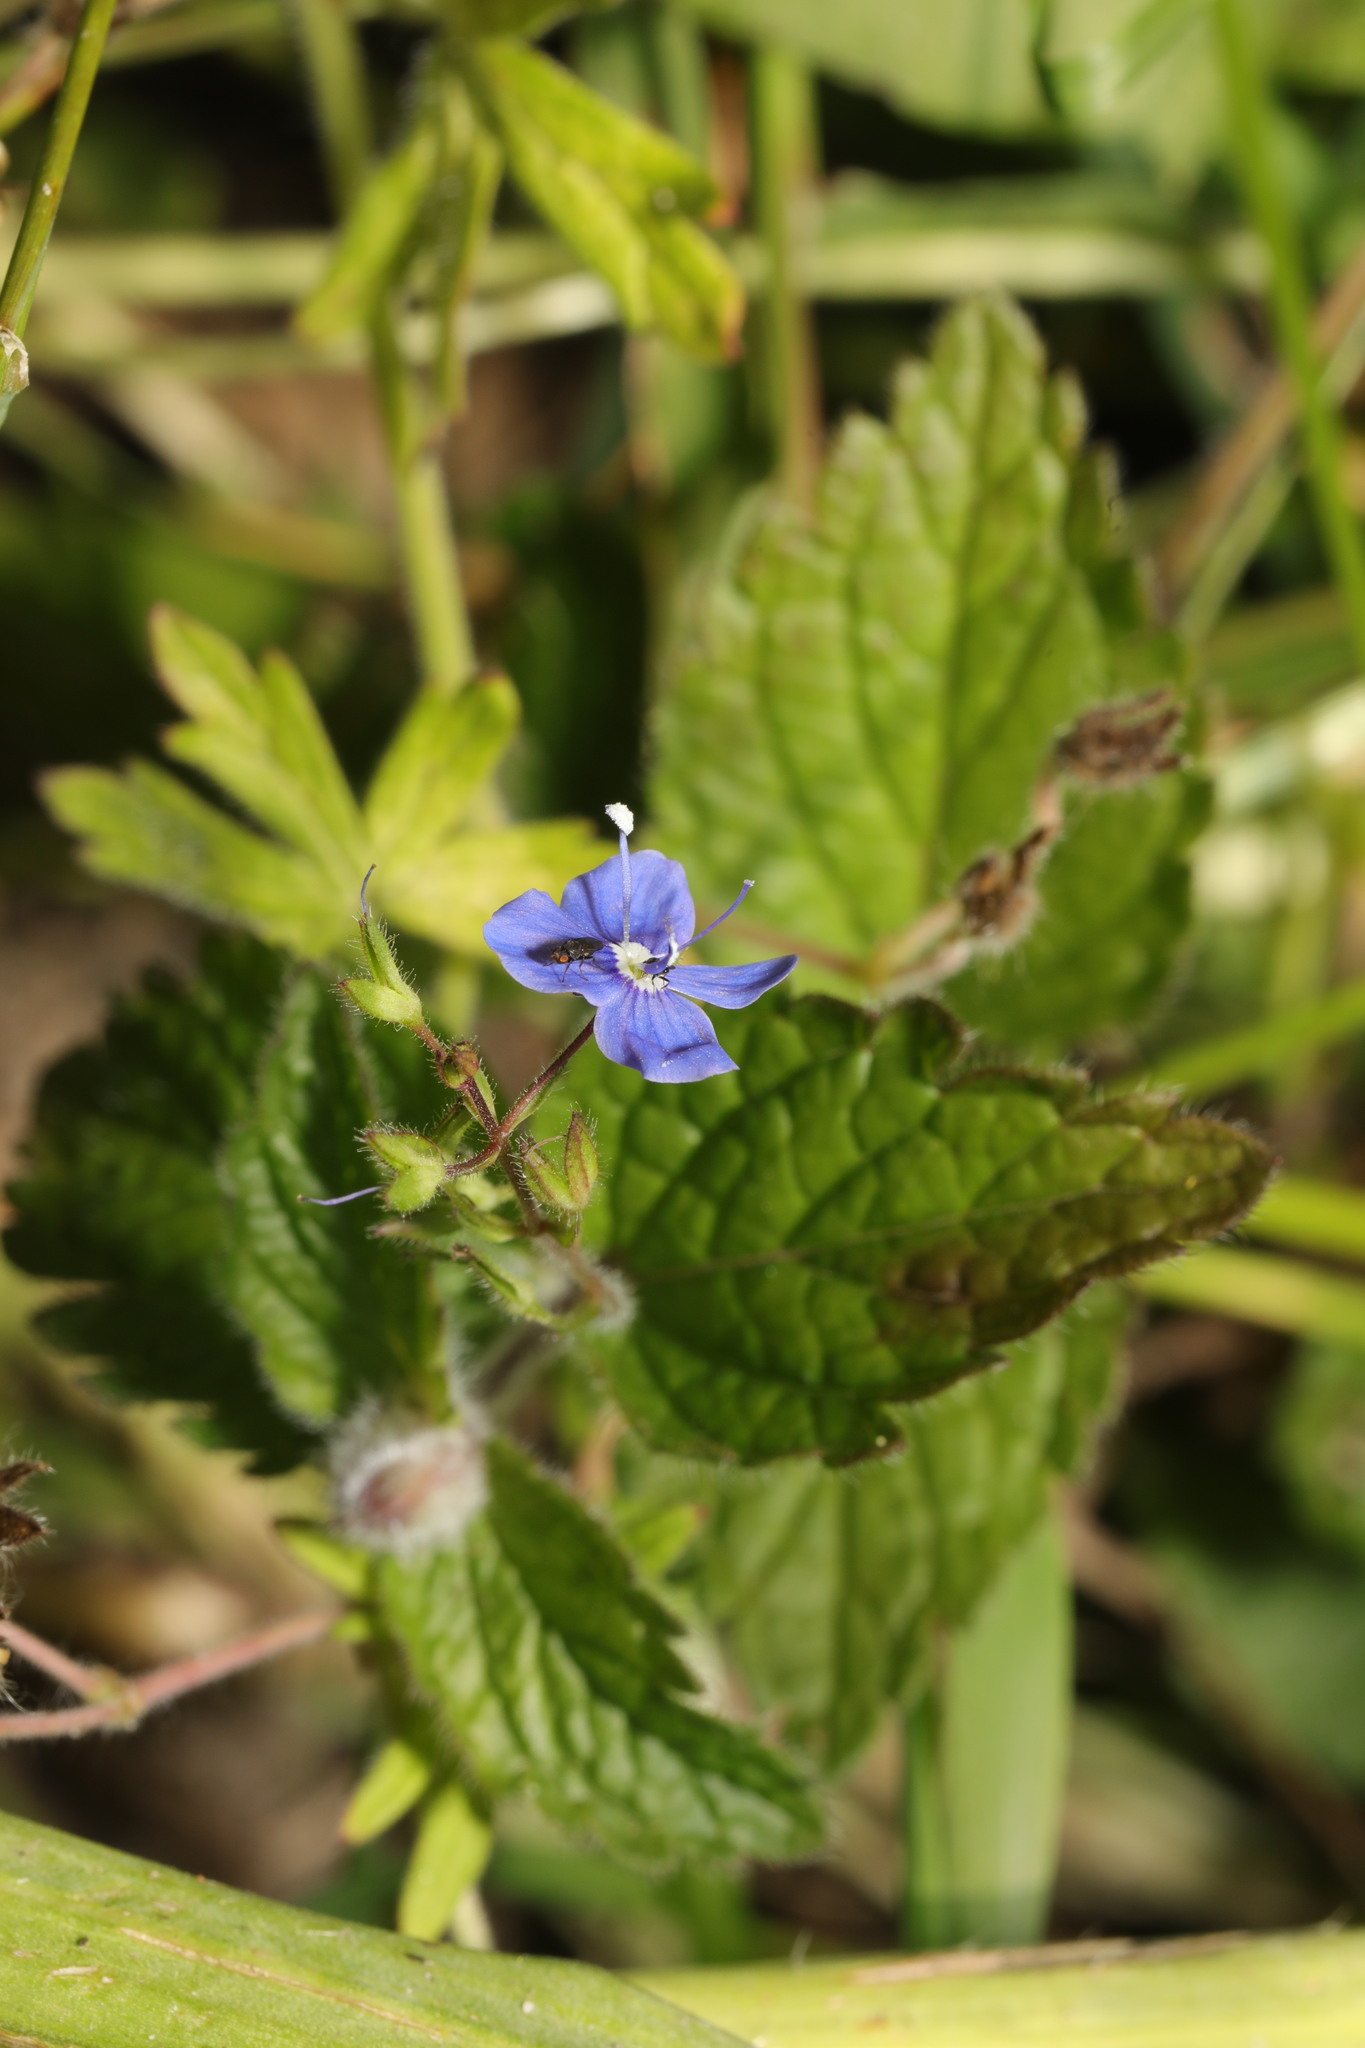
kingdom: Plantae
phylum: Tracheophyta
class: Magnoliopsida
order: Lamiales
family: Plantaginaceae
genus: Veronica
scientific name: Veronica chamaedrys
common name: Germander speedwell
